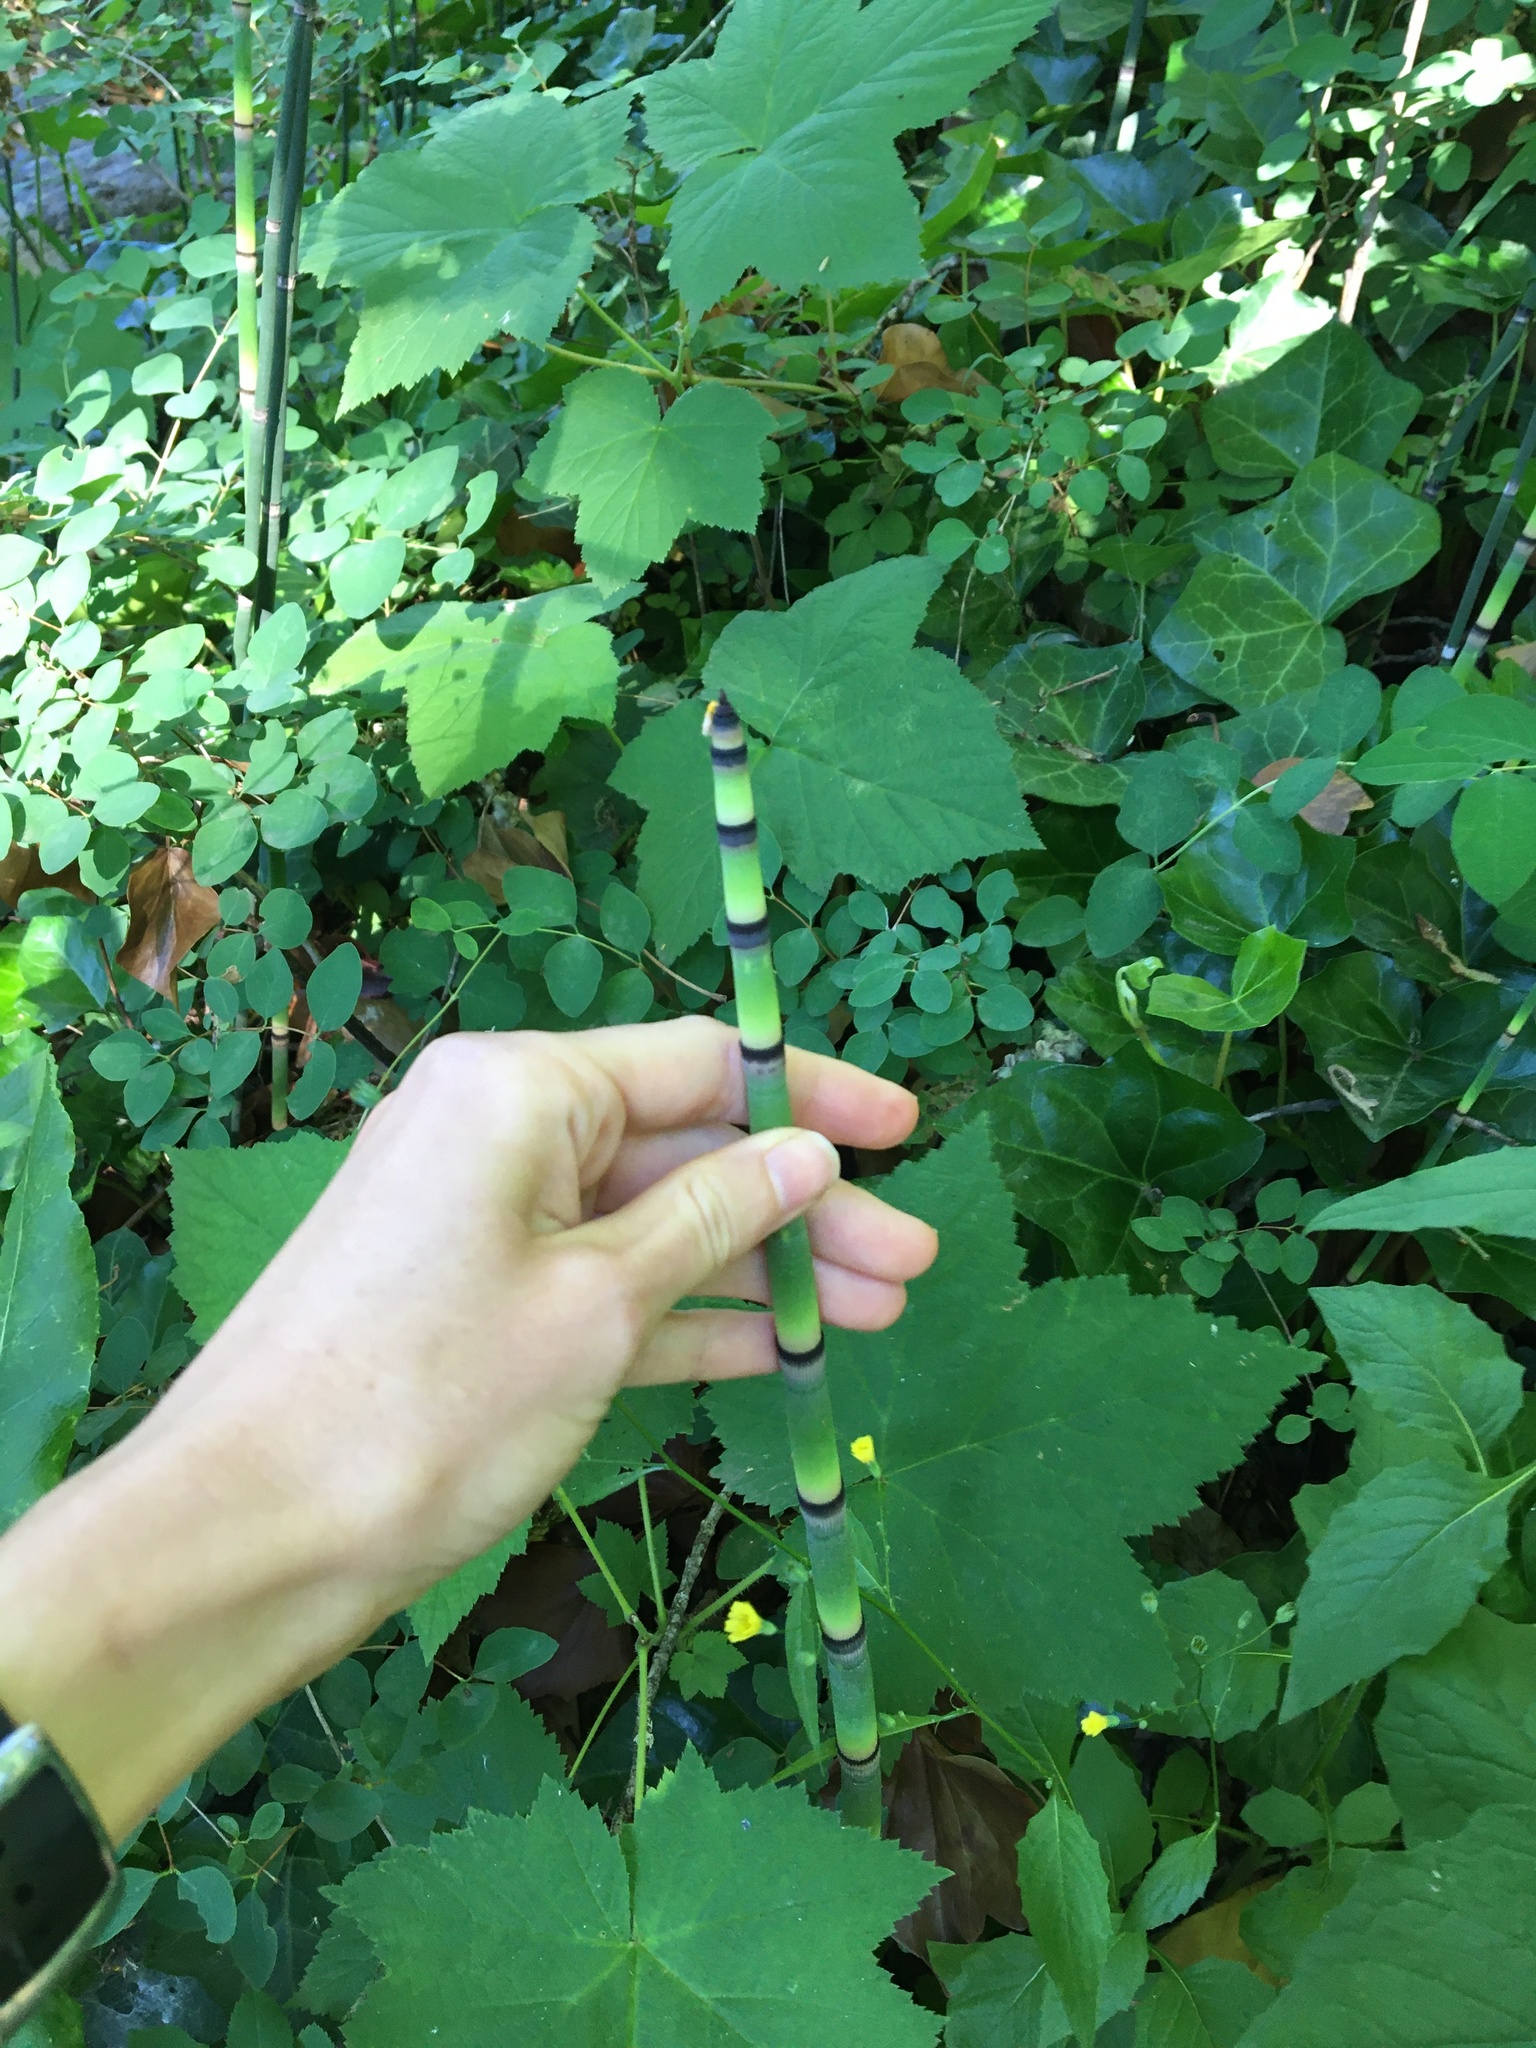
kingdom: Plantae
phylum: Tracheophyta
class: Polypodiopsida
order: Equisetales
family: Equisetaceae
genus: Equisetum
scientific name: Equisetum hyemale
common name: Rough horsetail
